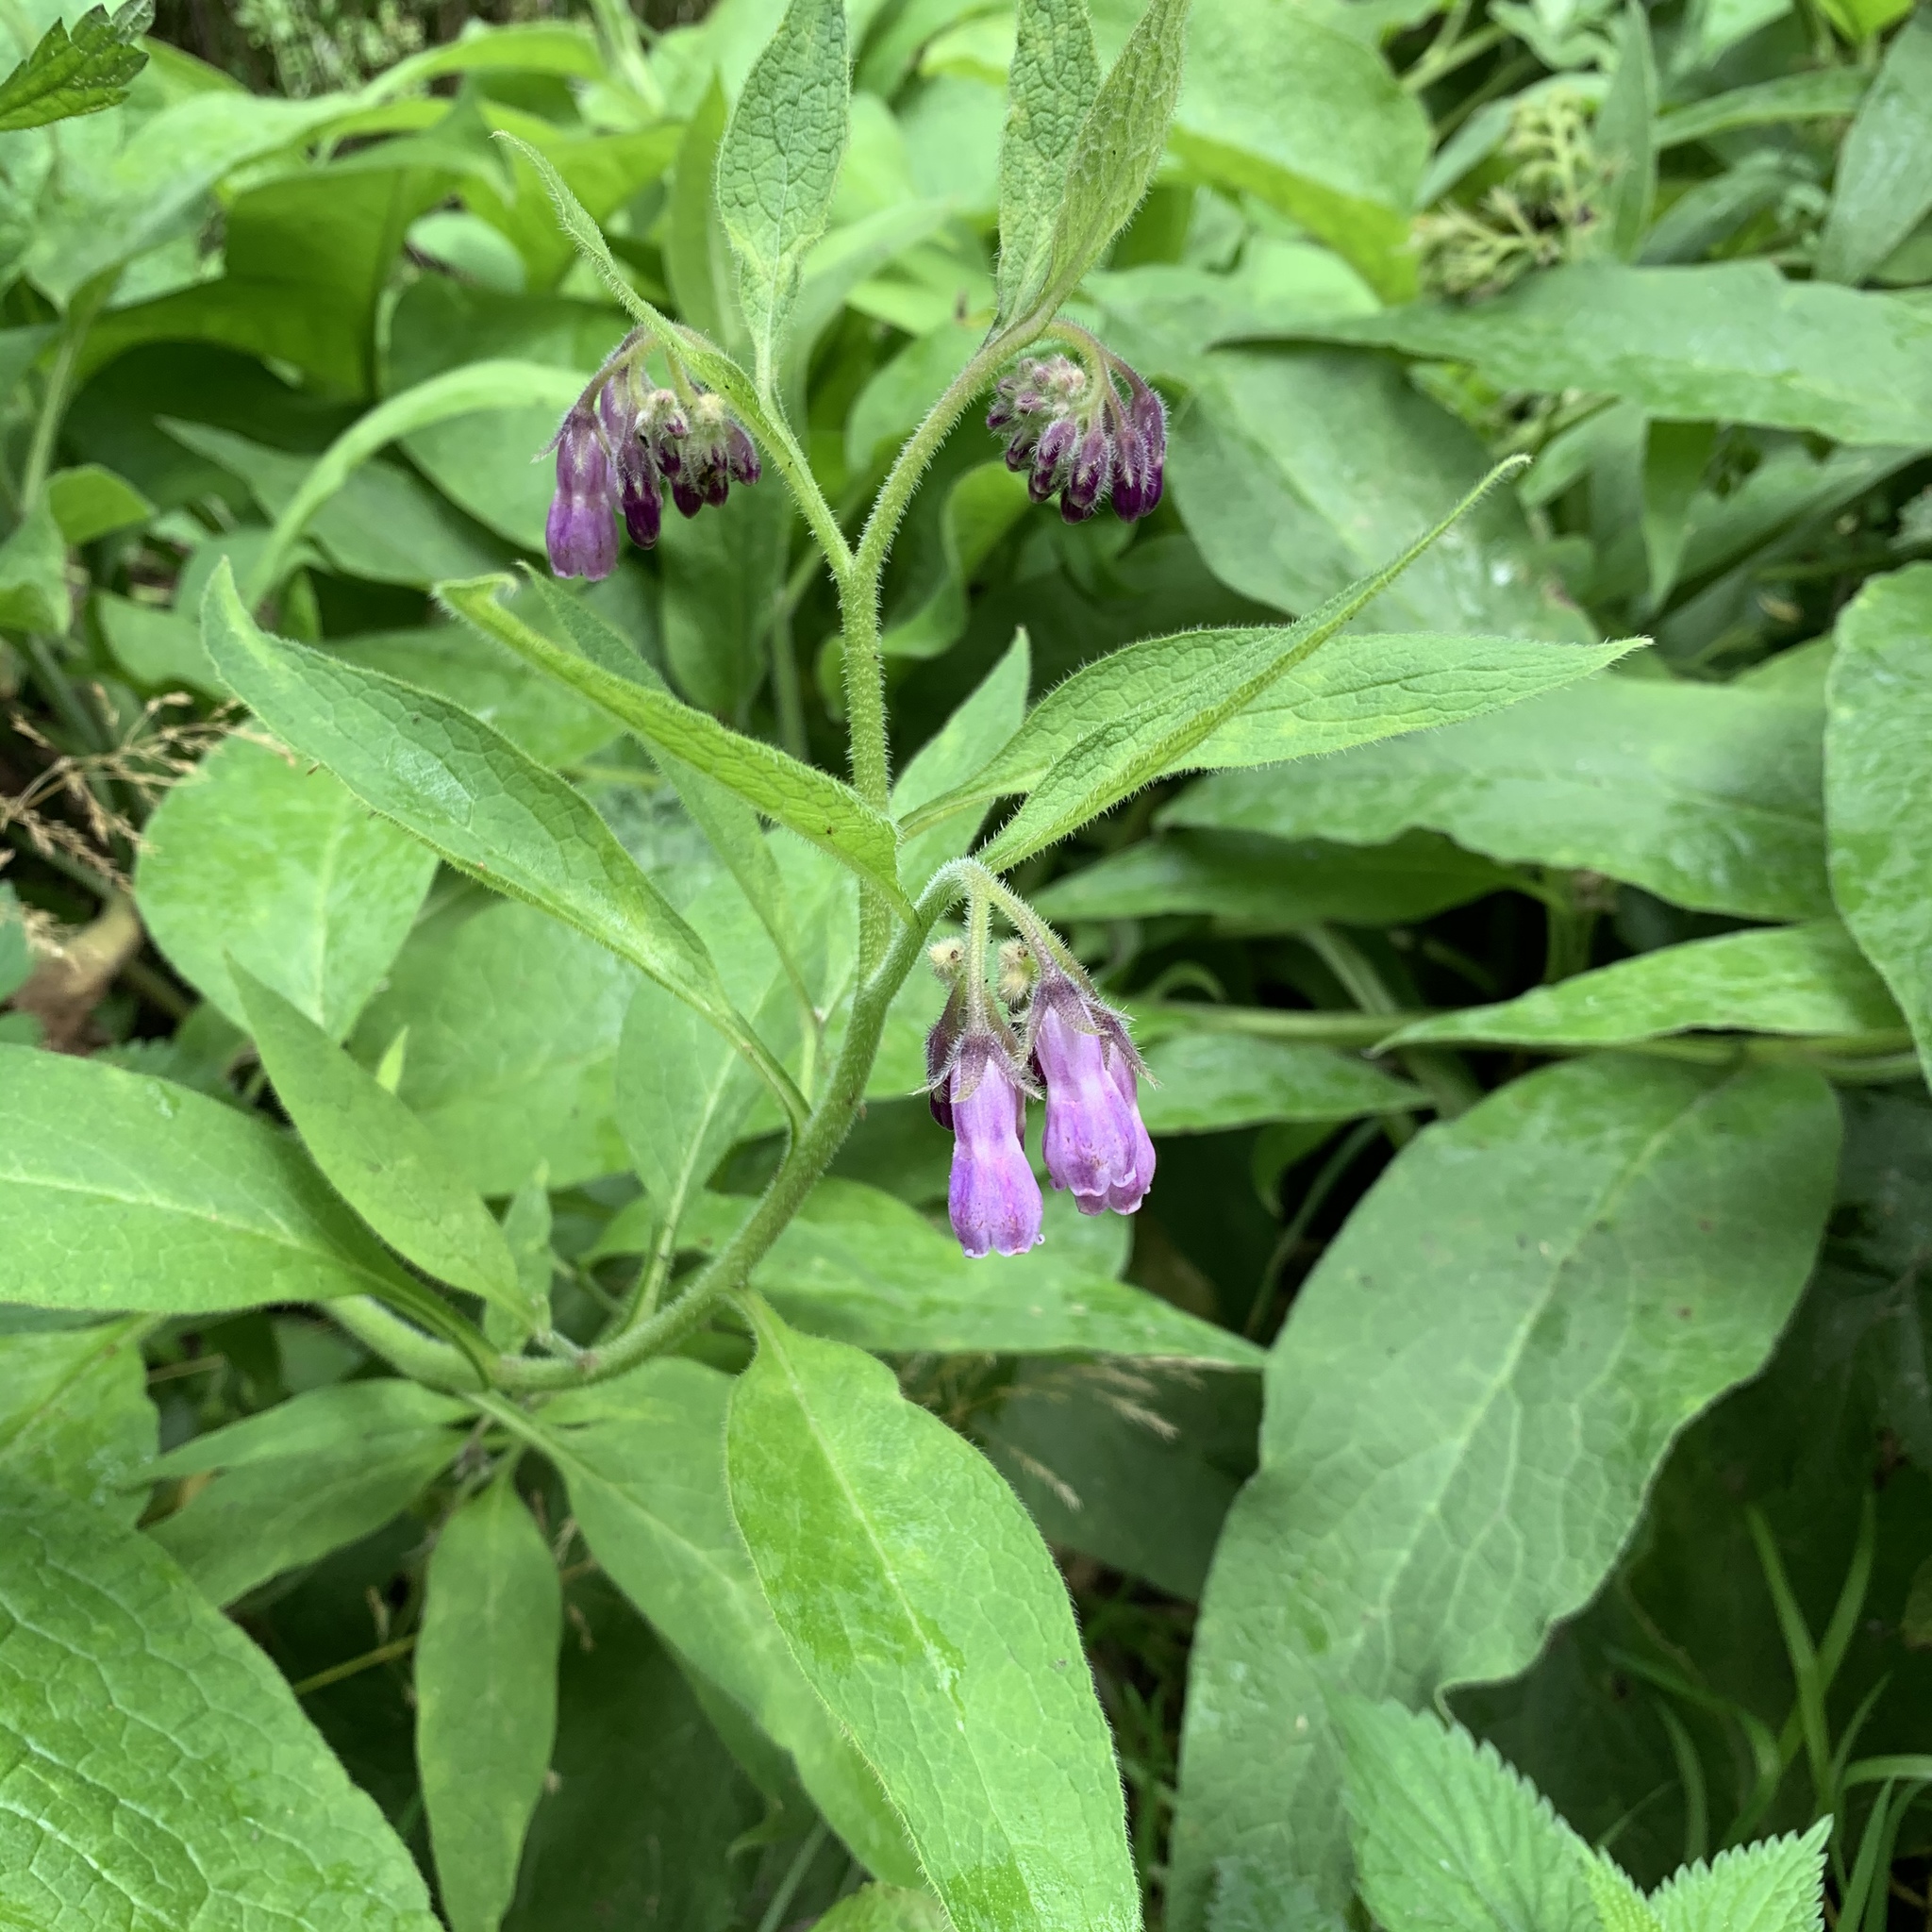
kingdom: Plantae
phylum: Tracheophyta
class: Magnoliopsida
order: Boraginales
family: Boraginaceae
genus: Symphytum
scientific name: Symphytum officinale
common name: Common comfrey
